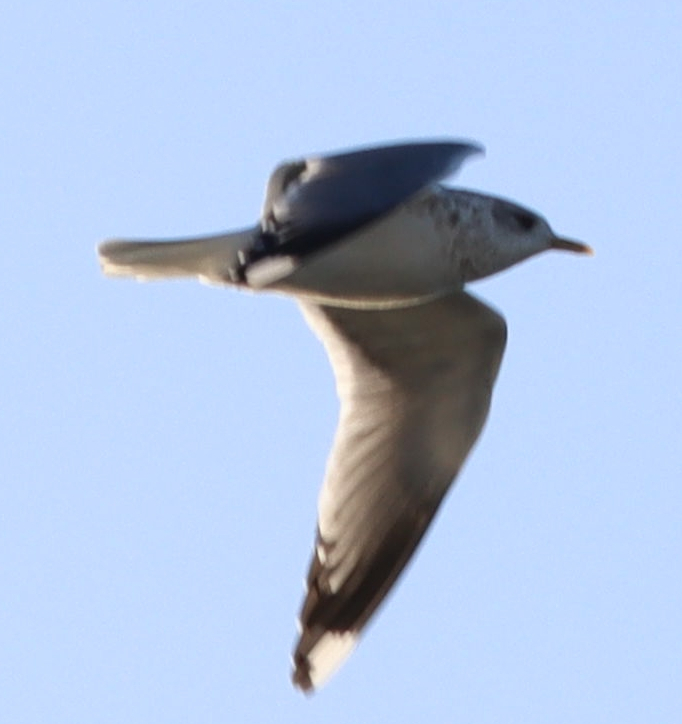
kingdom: Animalia
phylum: Chordata
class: Aves
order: Charadriiformes
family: Laridae
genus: Larus
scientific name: Larus brachyrhynchus
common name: Short-billed gull
